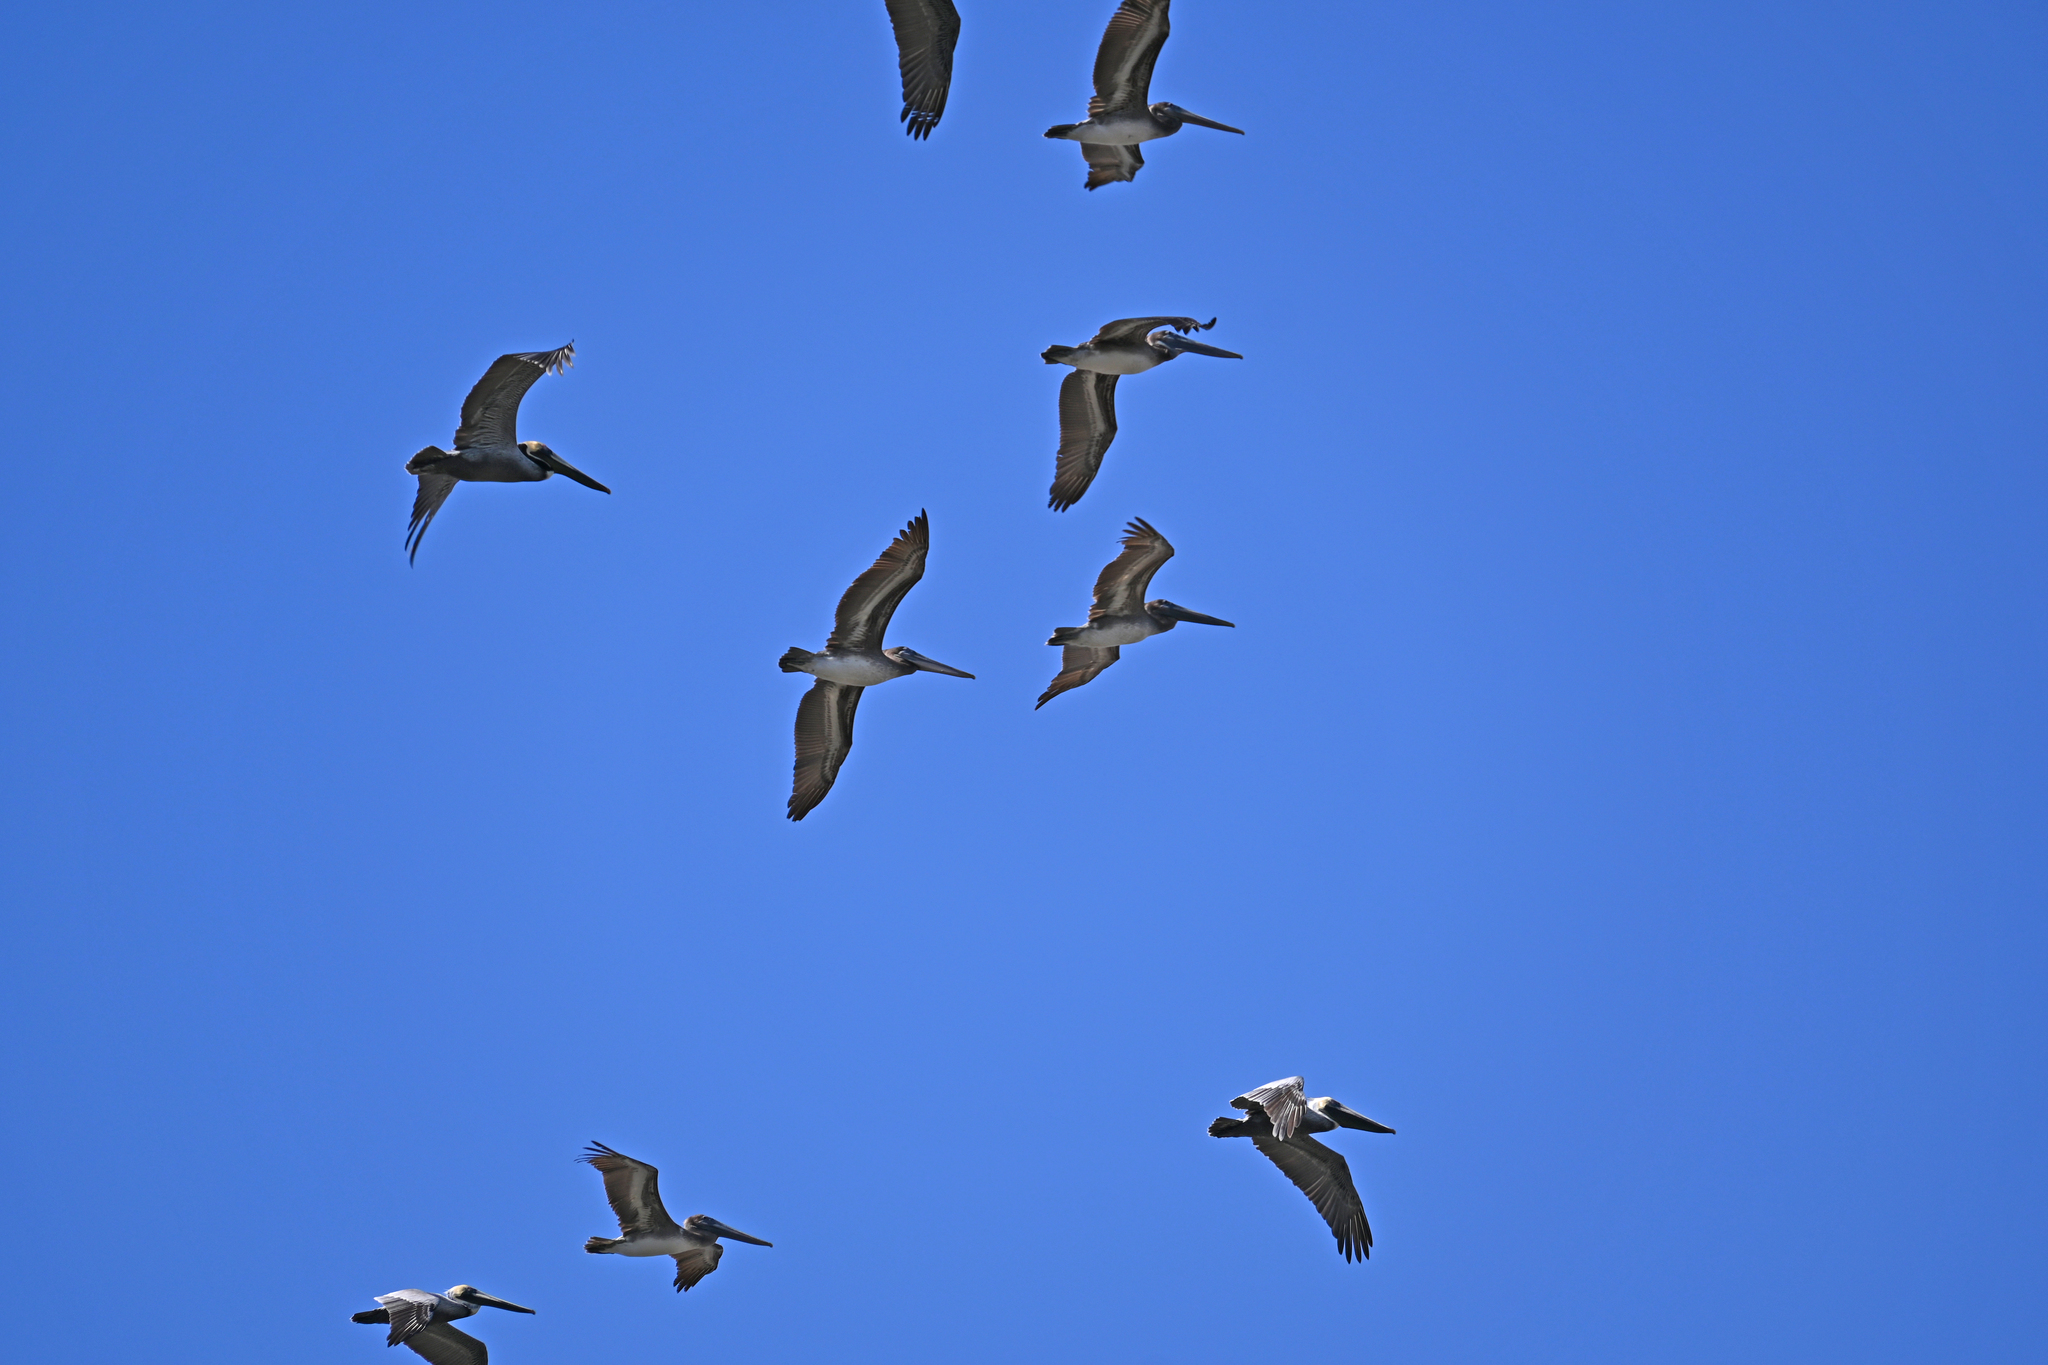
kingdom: Animalia
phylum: Chordata
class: Aves
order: Pelecaniformes
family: Pelecanidae
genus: Pelecanus
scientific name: Pelecanus occidentalis
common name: Brown pelican
